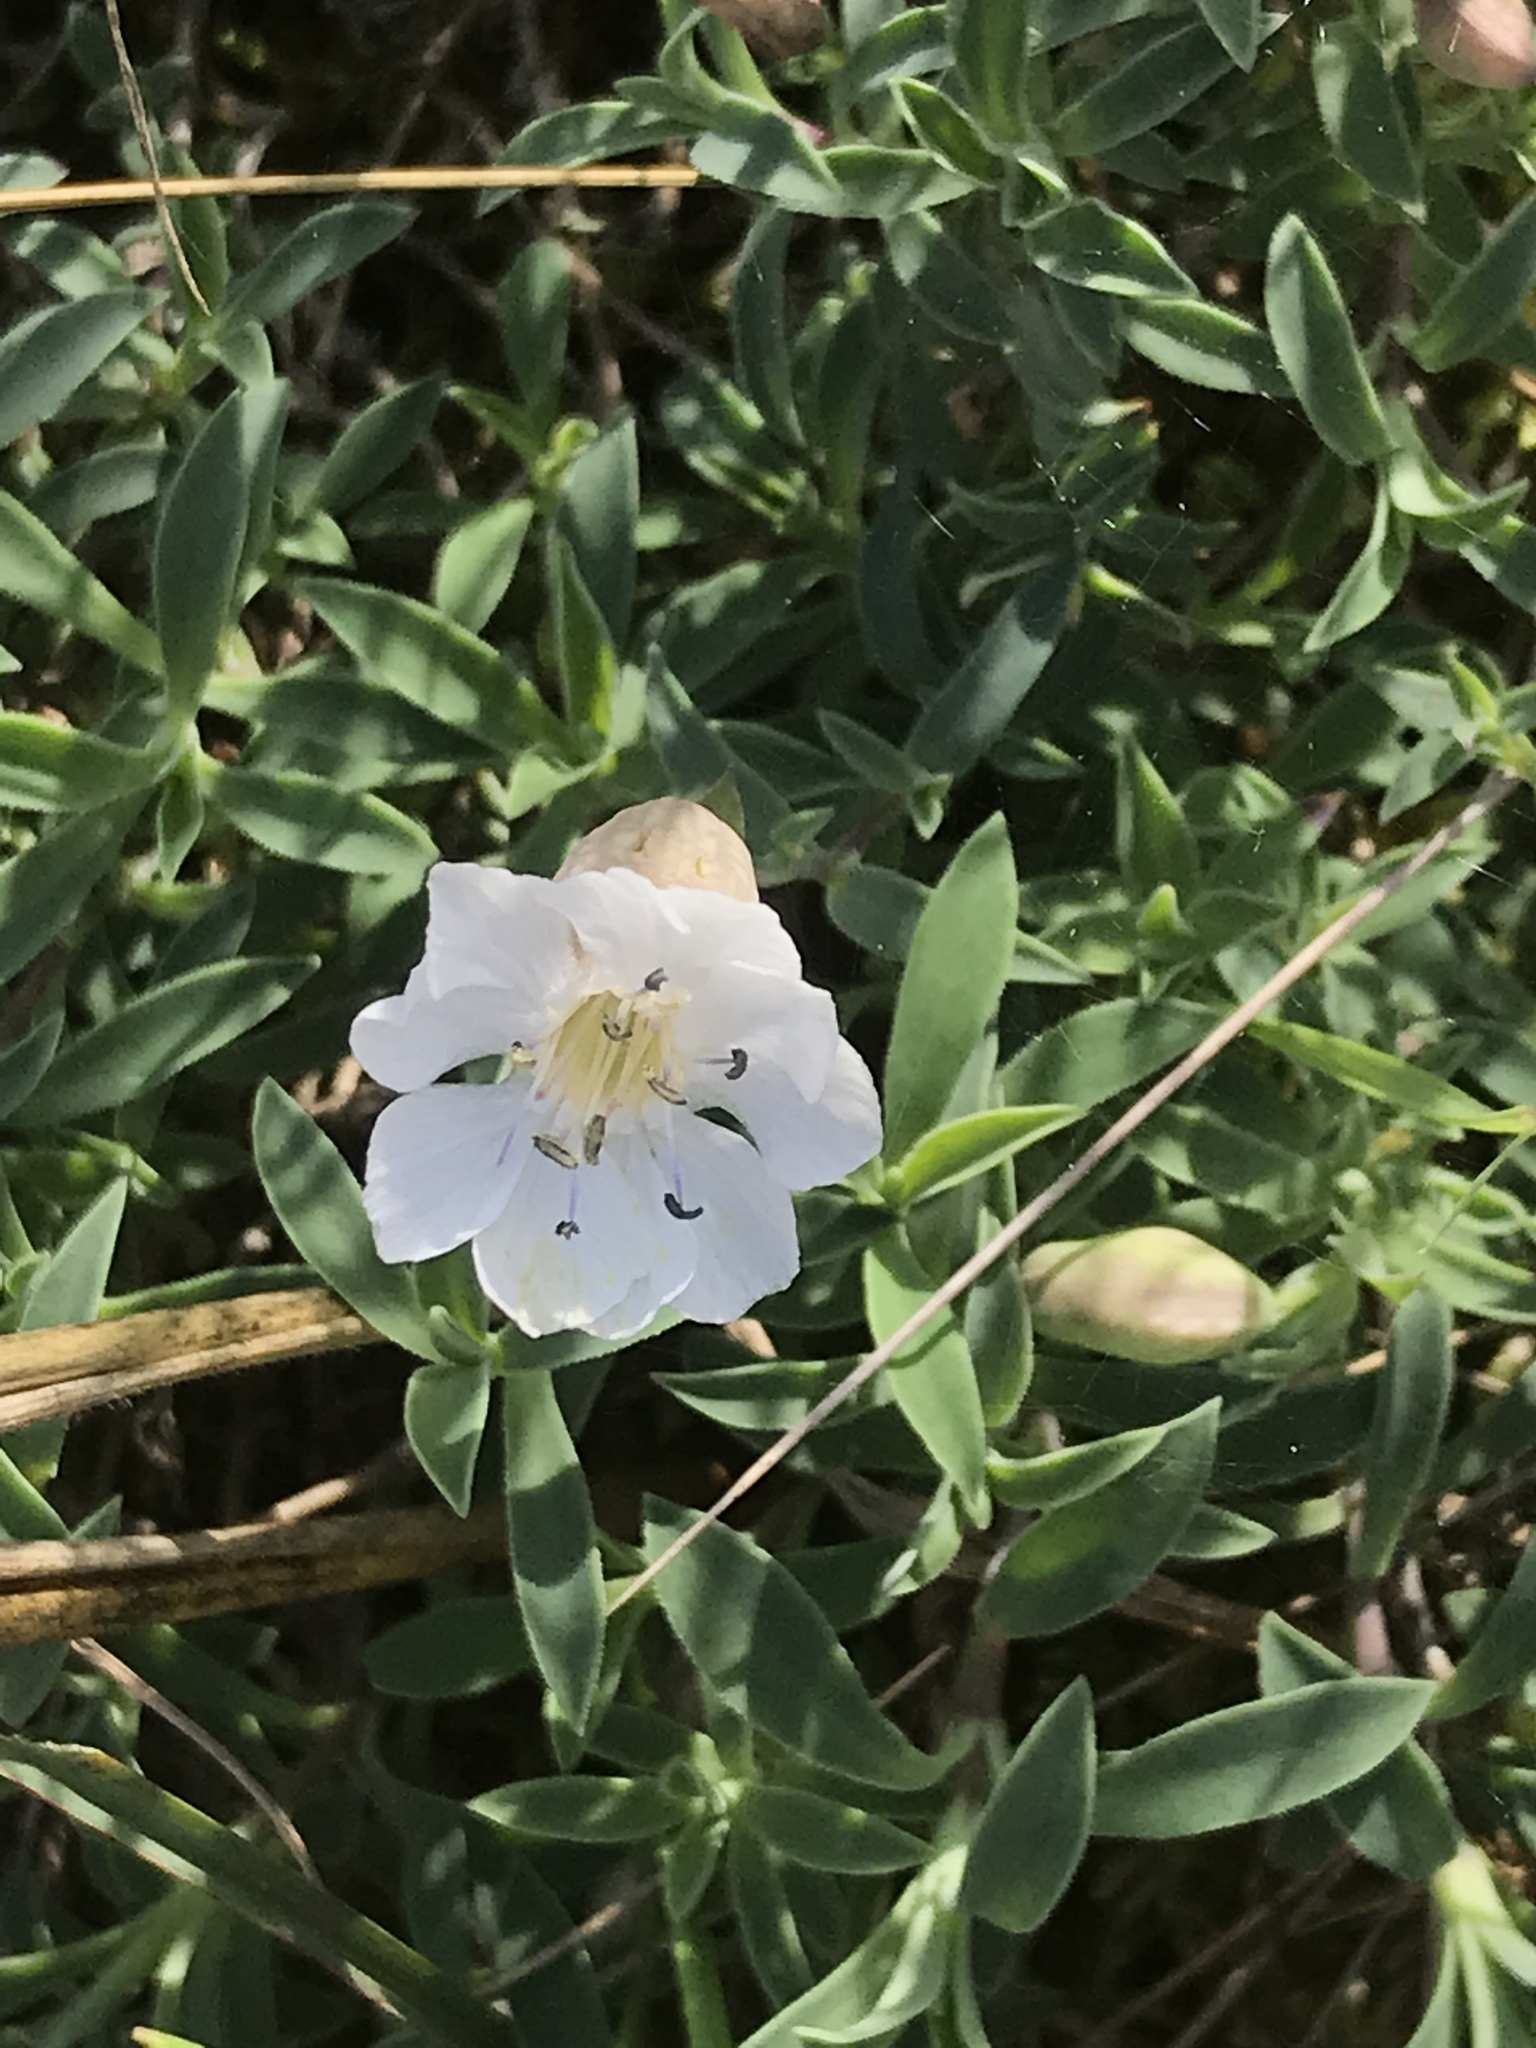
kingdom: Plantae
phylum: Tracheophyta
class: Magnoliopsida
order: Caryophyllales
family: Caryophyllaceae
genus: Silene
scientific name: Silene uniflora
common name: Sea campion
